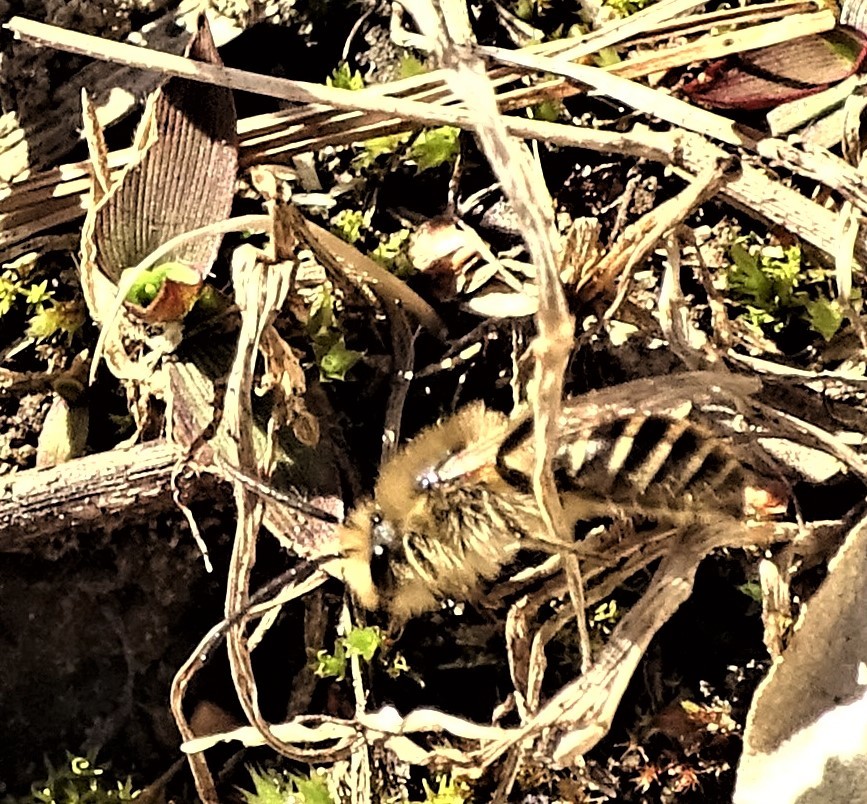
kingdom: Animalia
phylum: Arthropoda
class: Insecta
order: Hymenoptera
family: Colletidae
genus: Colletes
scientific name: Colletes inaequalis
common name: Unequal cellophane bee
